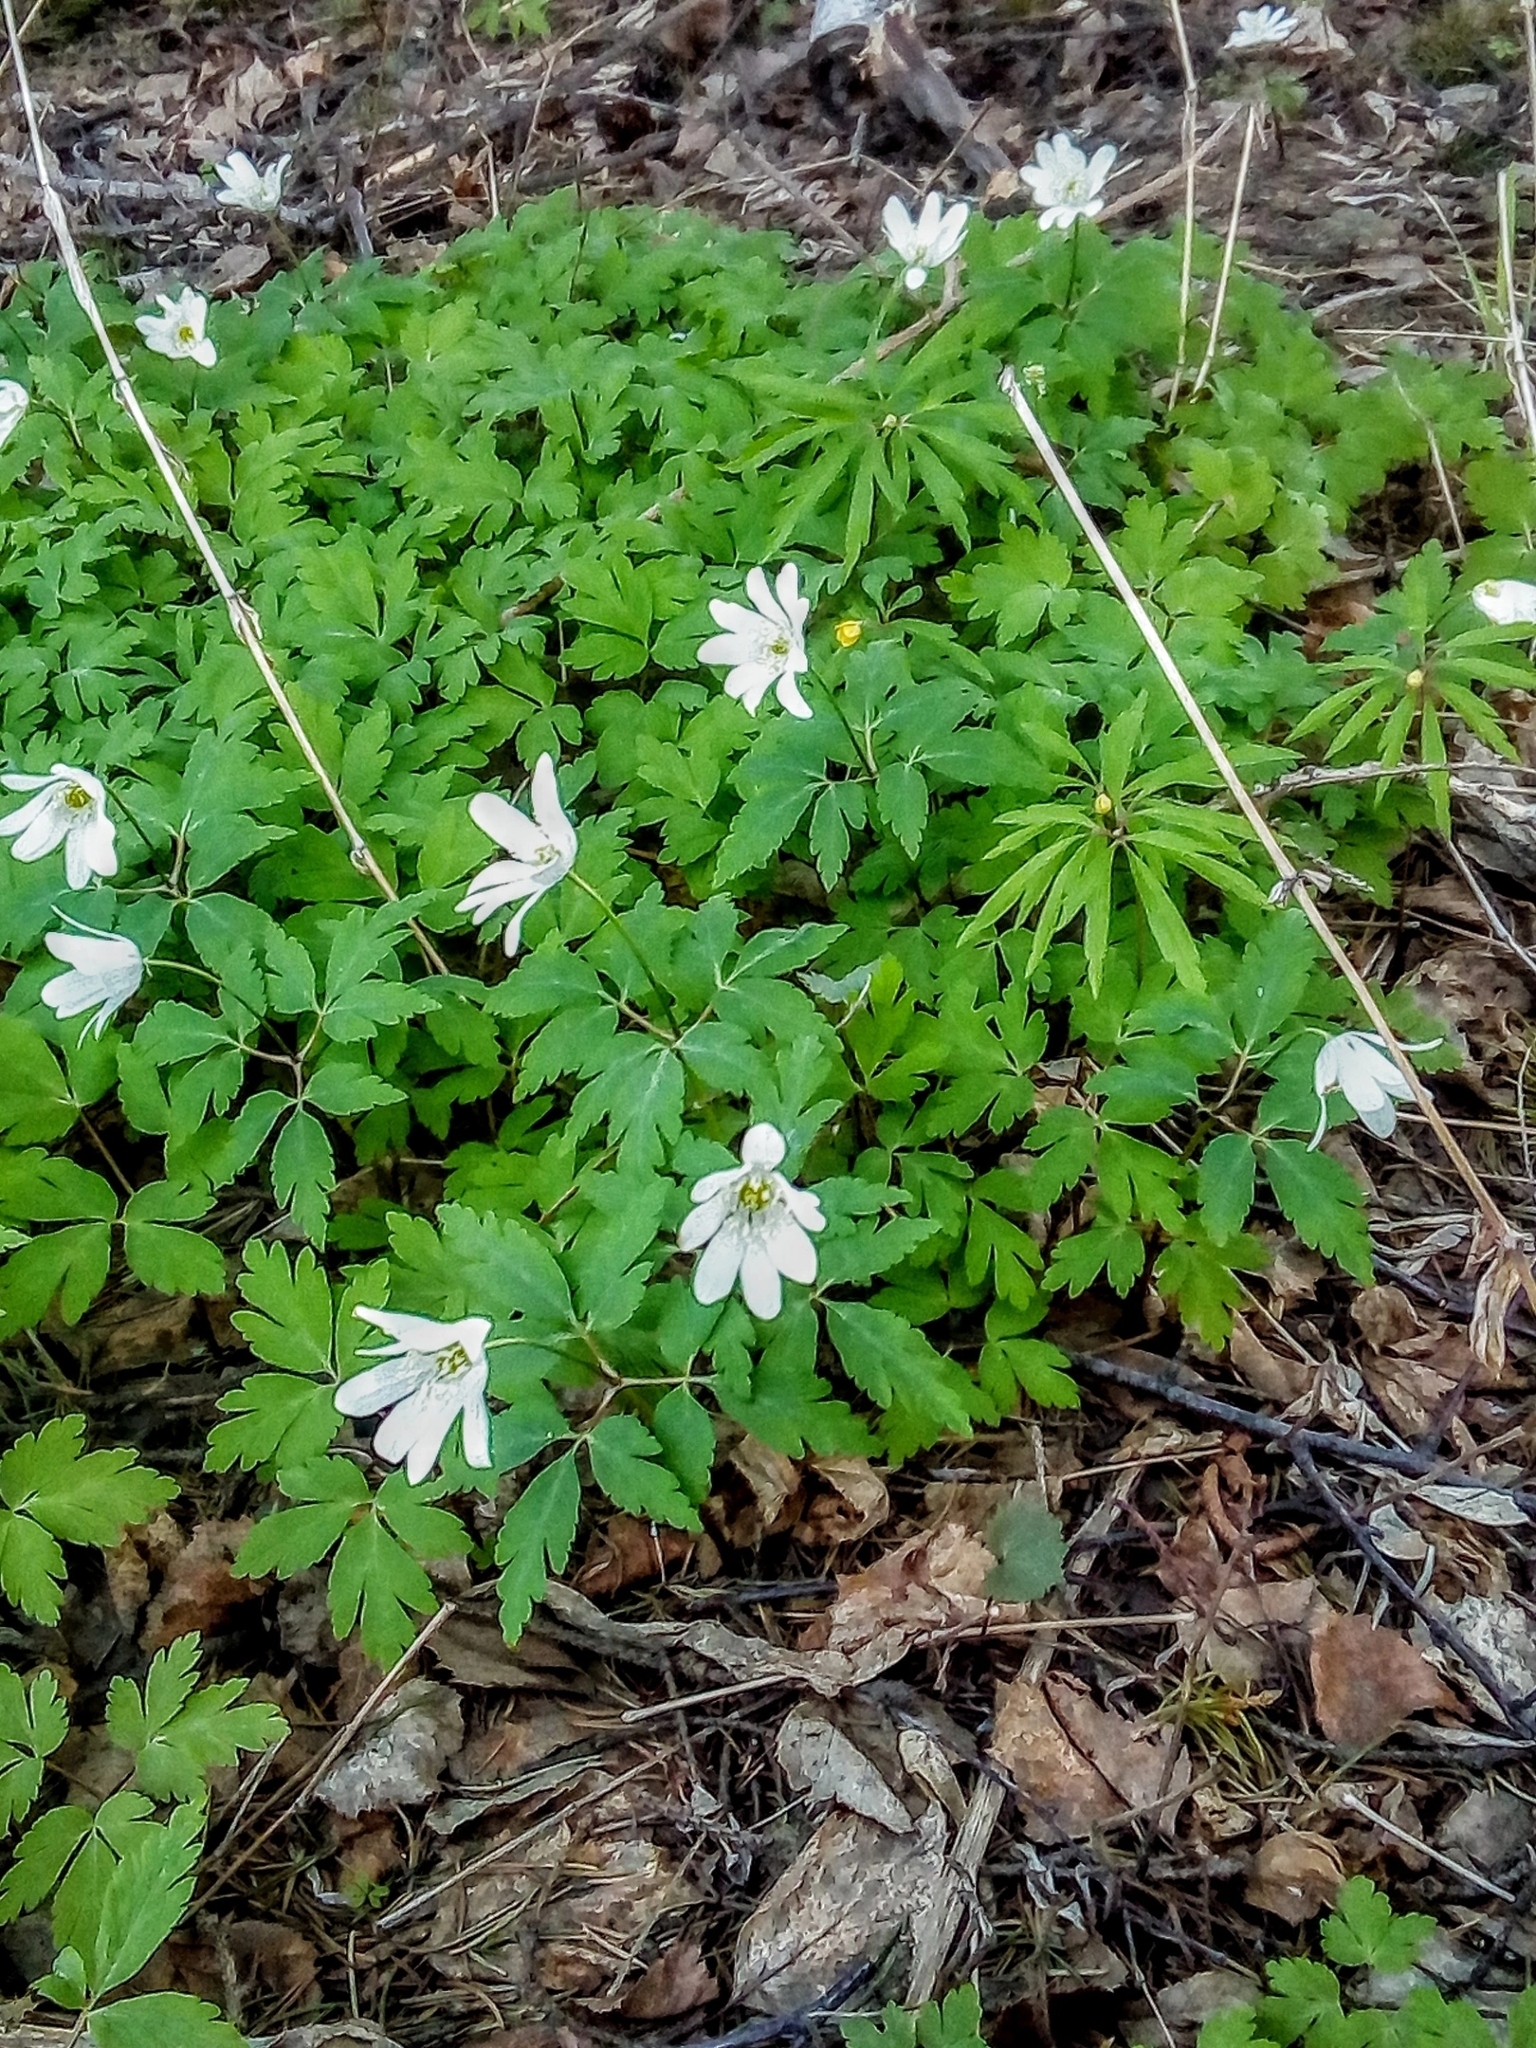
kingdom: Plantae
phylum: Tracheophyta
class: Magnoliopsida
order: Ranunculales
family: Ranunculaceae
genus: Anemone
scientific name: Anemone altaica
